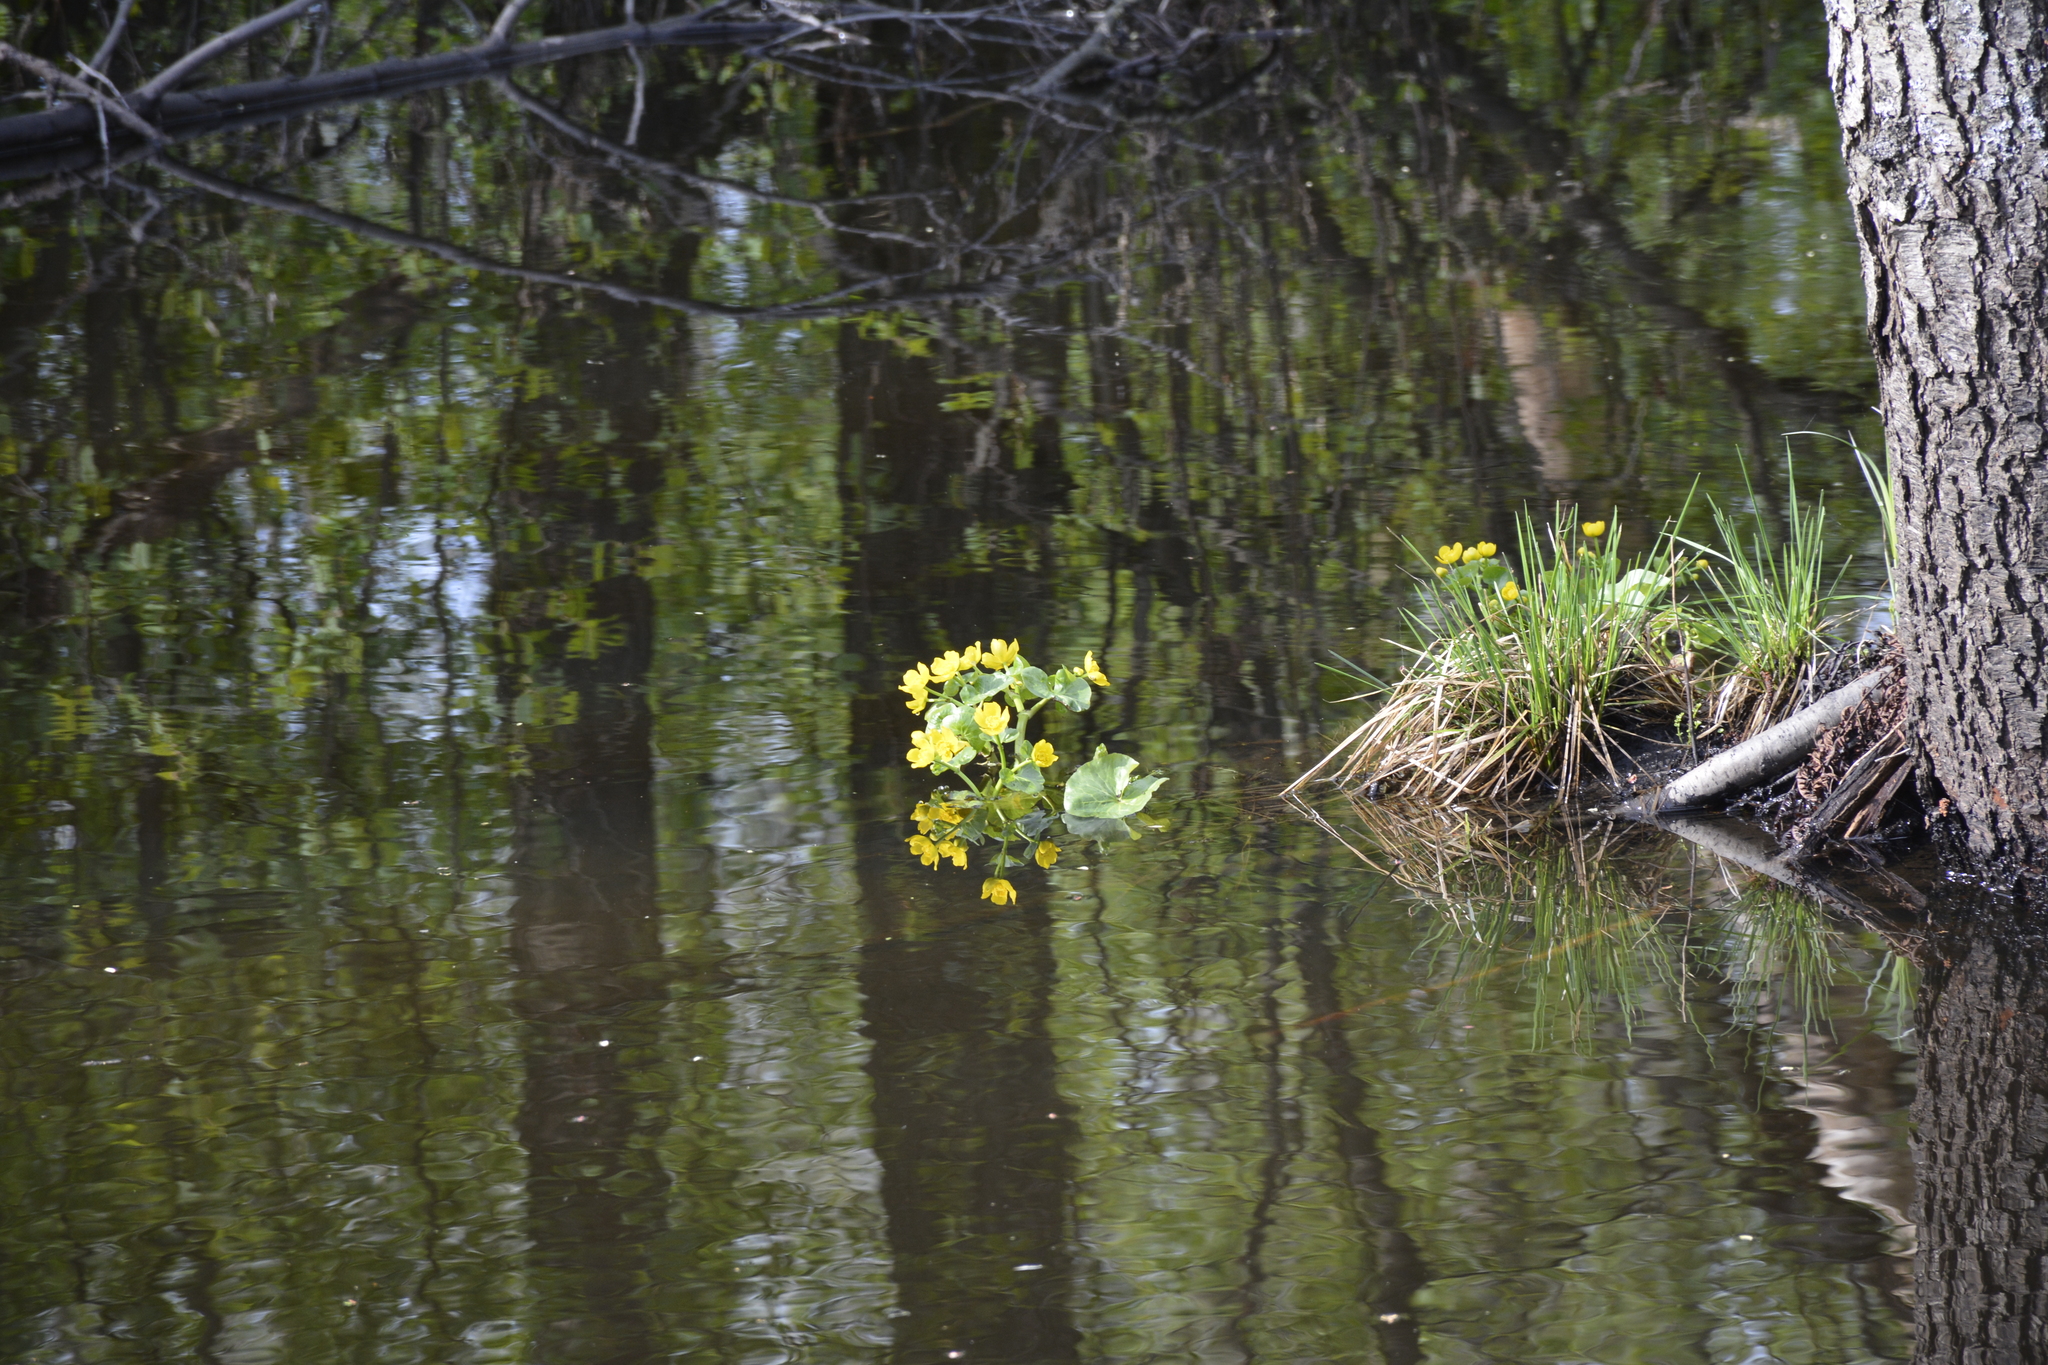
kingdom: Plantae
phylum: Tracheophyta
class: Magnoliopsida
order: Ranunculales
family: Ranunculaceae
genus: Caltha
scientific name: Caltha palustris
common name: Marsh marigold
